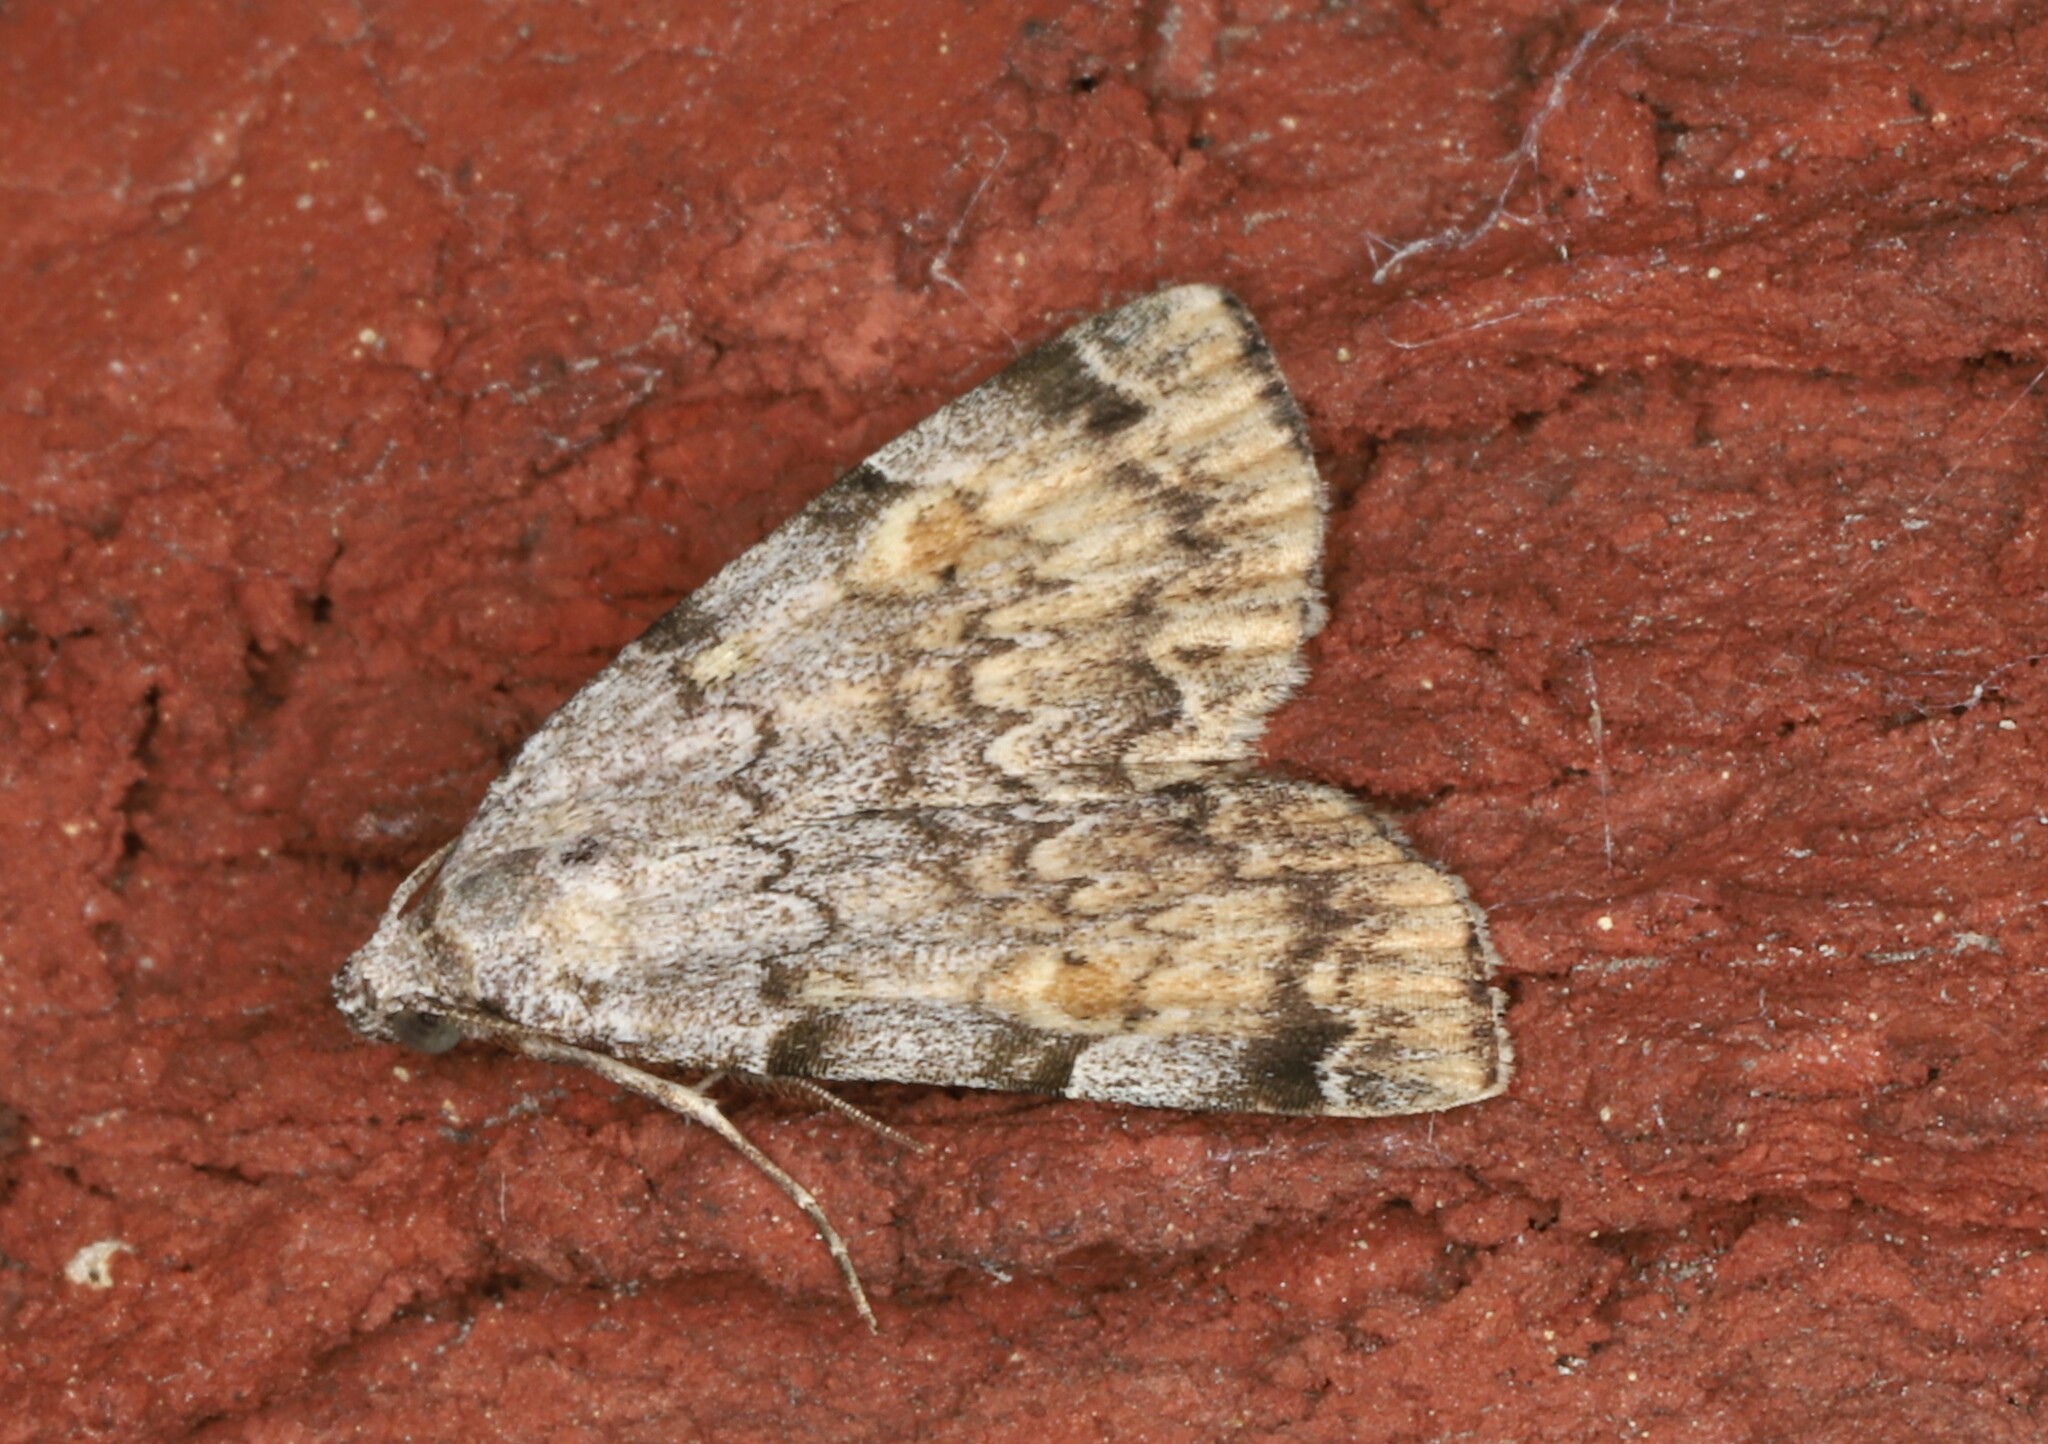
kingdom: Animalia
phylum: Arthropoda
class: Insecta
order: Lepidoptera
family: Erebidae
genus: Idia
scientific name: Idia americalis
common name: American idia moth
